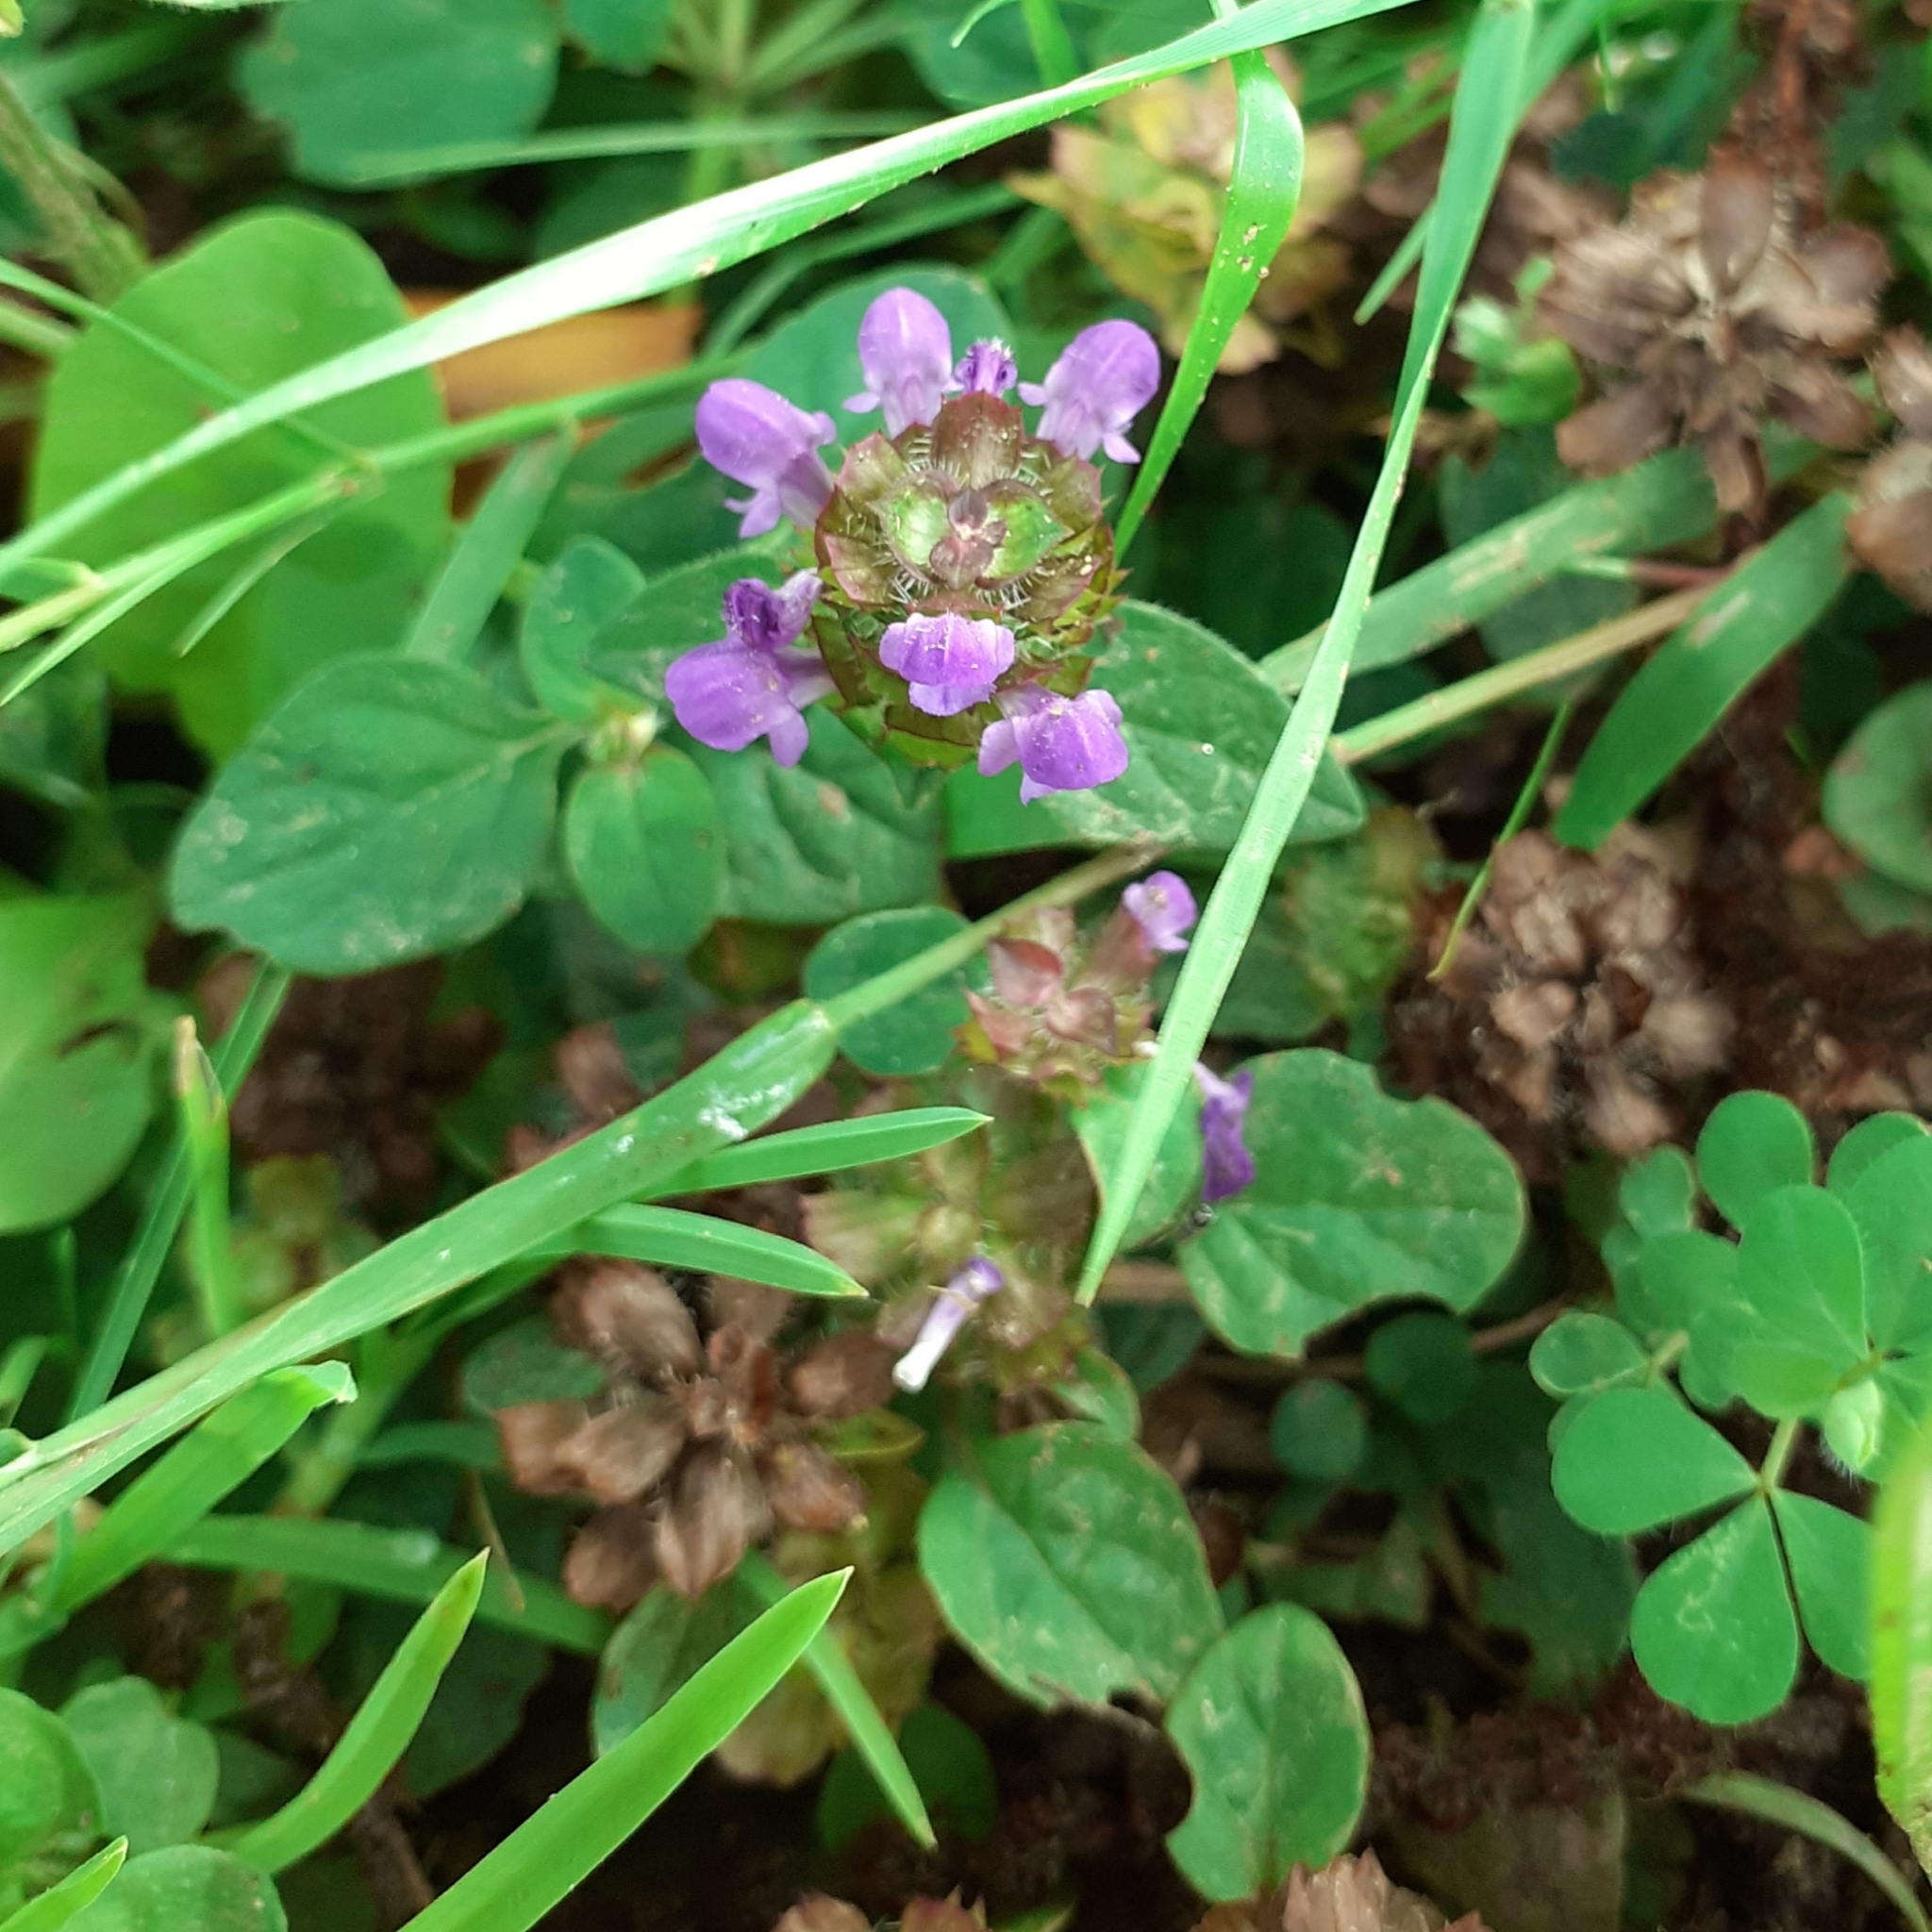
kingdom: Plantae
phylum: Tracheophyta
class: Magnoliopsida
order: Lamiales
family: Lamiaceae
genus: Prunella
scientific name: Prunella vulgaris
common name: Heal-all
